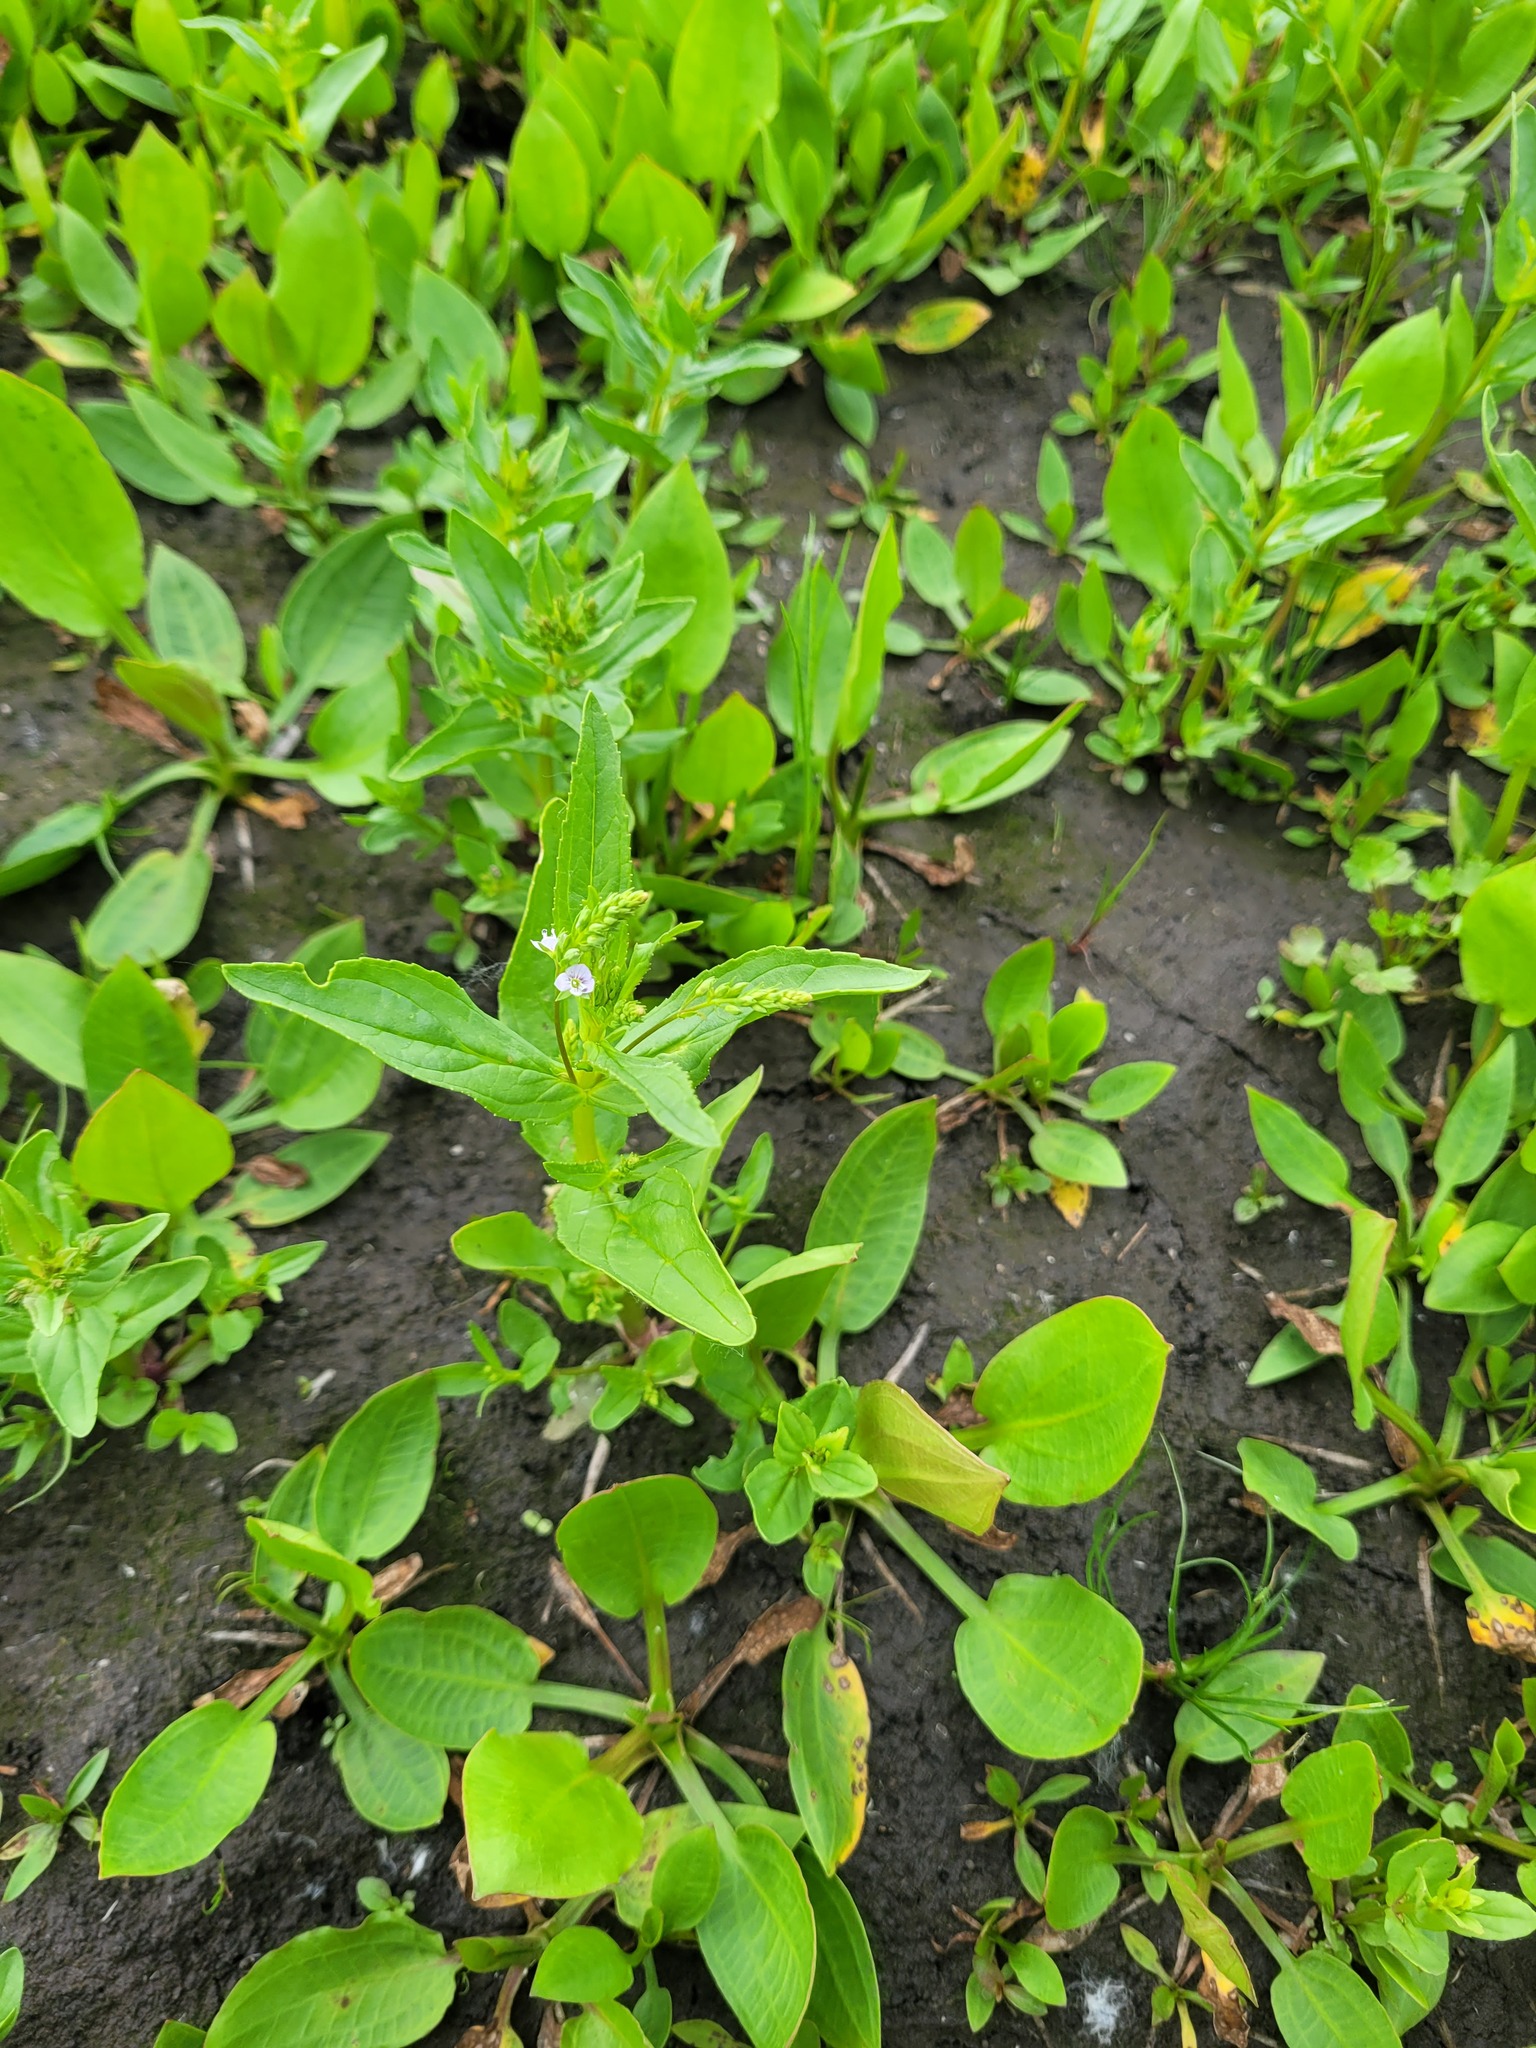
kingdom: Plantae
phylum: Tracheophyta
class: Magnoliopsida
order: Lamiales
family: Plantaginaceae
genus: Veronica
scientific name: Veronica anagallis-aquatica
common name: Water speedwell
